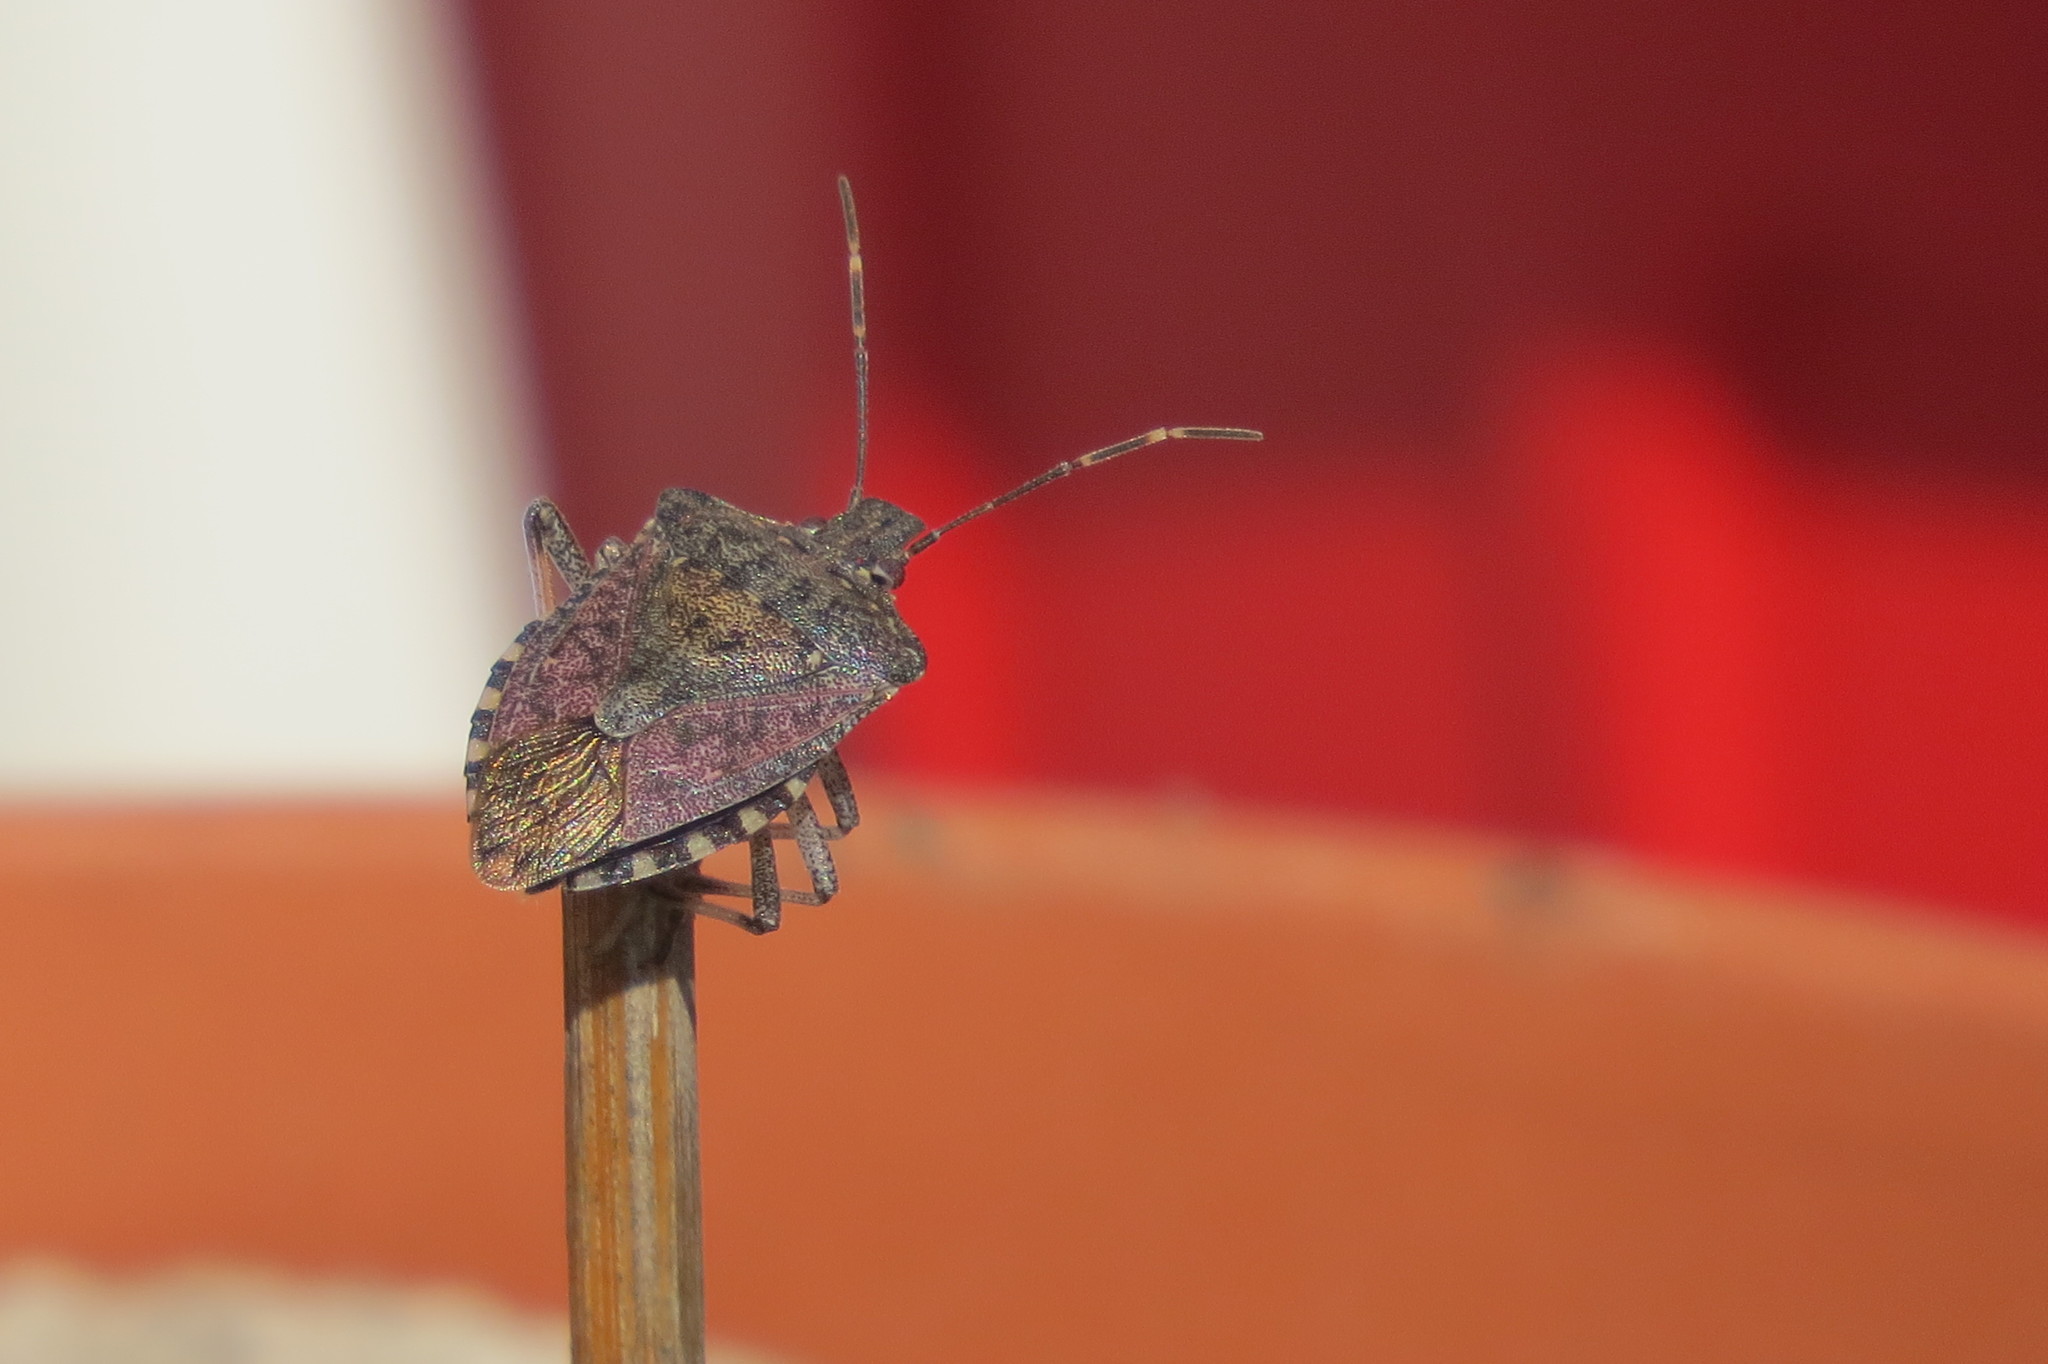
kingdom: Animalia
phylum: Arthropoda
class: Insecta
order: Hemiptera
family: Pentatomidae
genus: Halyomorpha
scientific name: Halyomorpha halys
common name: Brown marmorated stink bug
